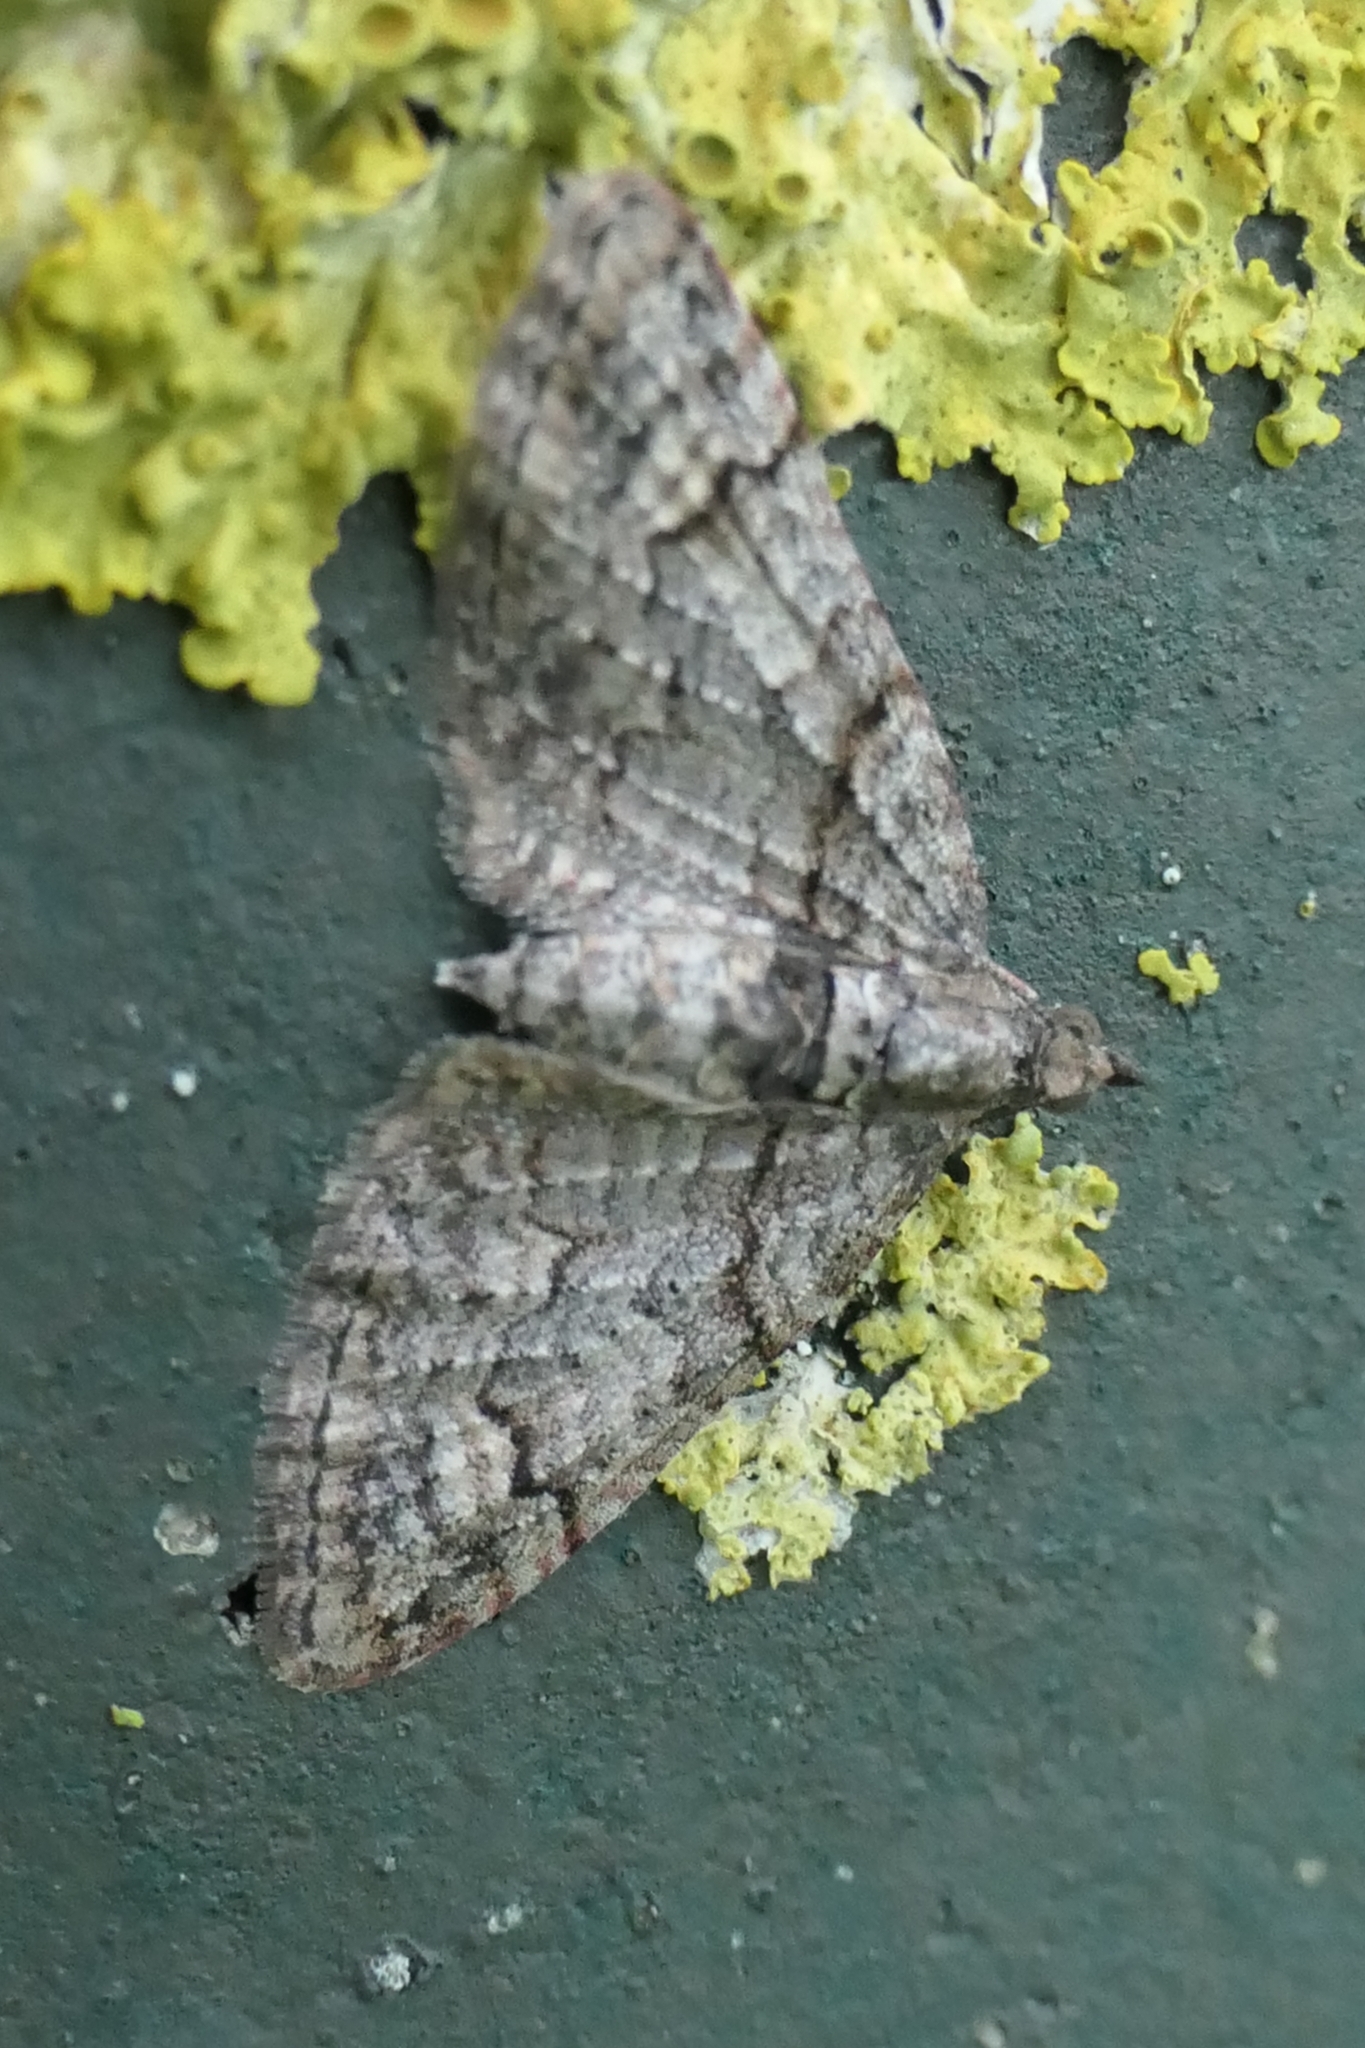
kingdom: Animalia
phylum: Arthropoda
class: Insecta
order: Lepidoptera
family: Geometridae
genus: Phrissogonus
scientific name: Phrissogonus laticostata
